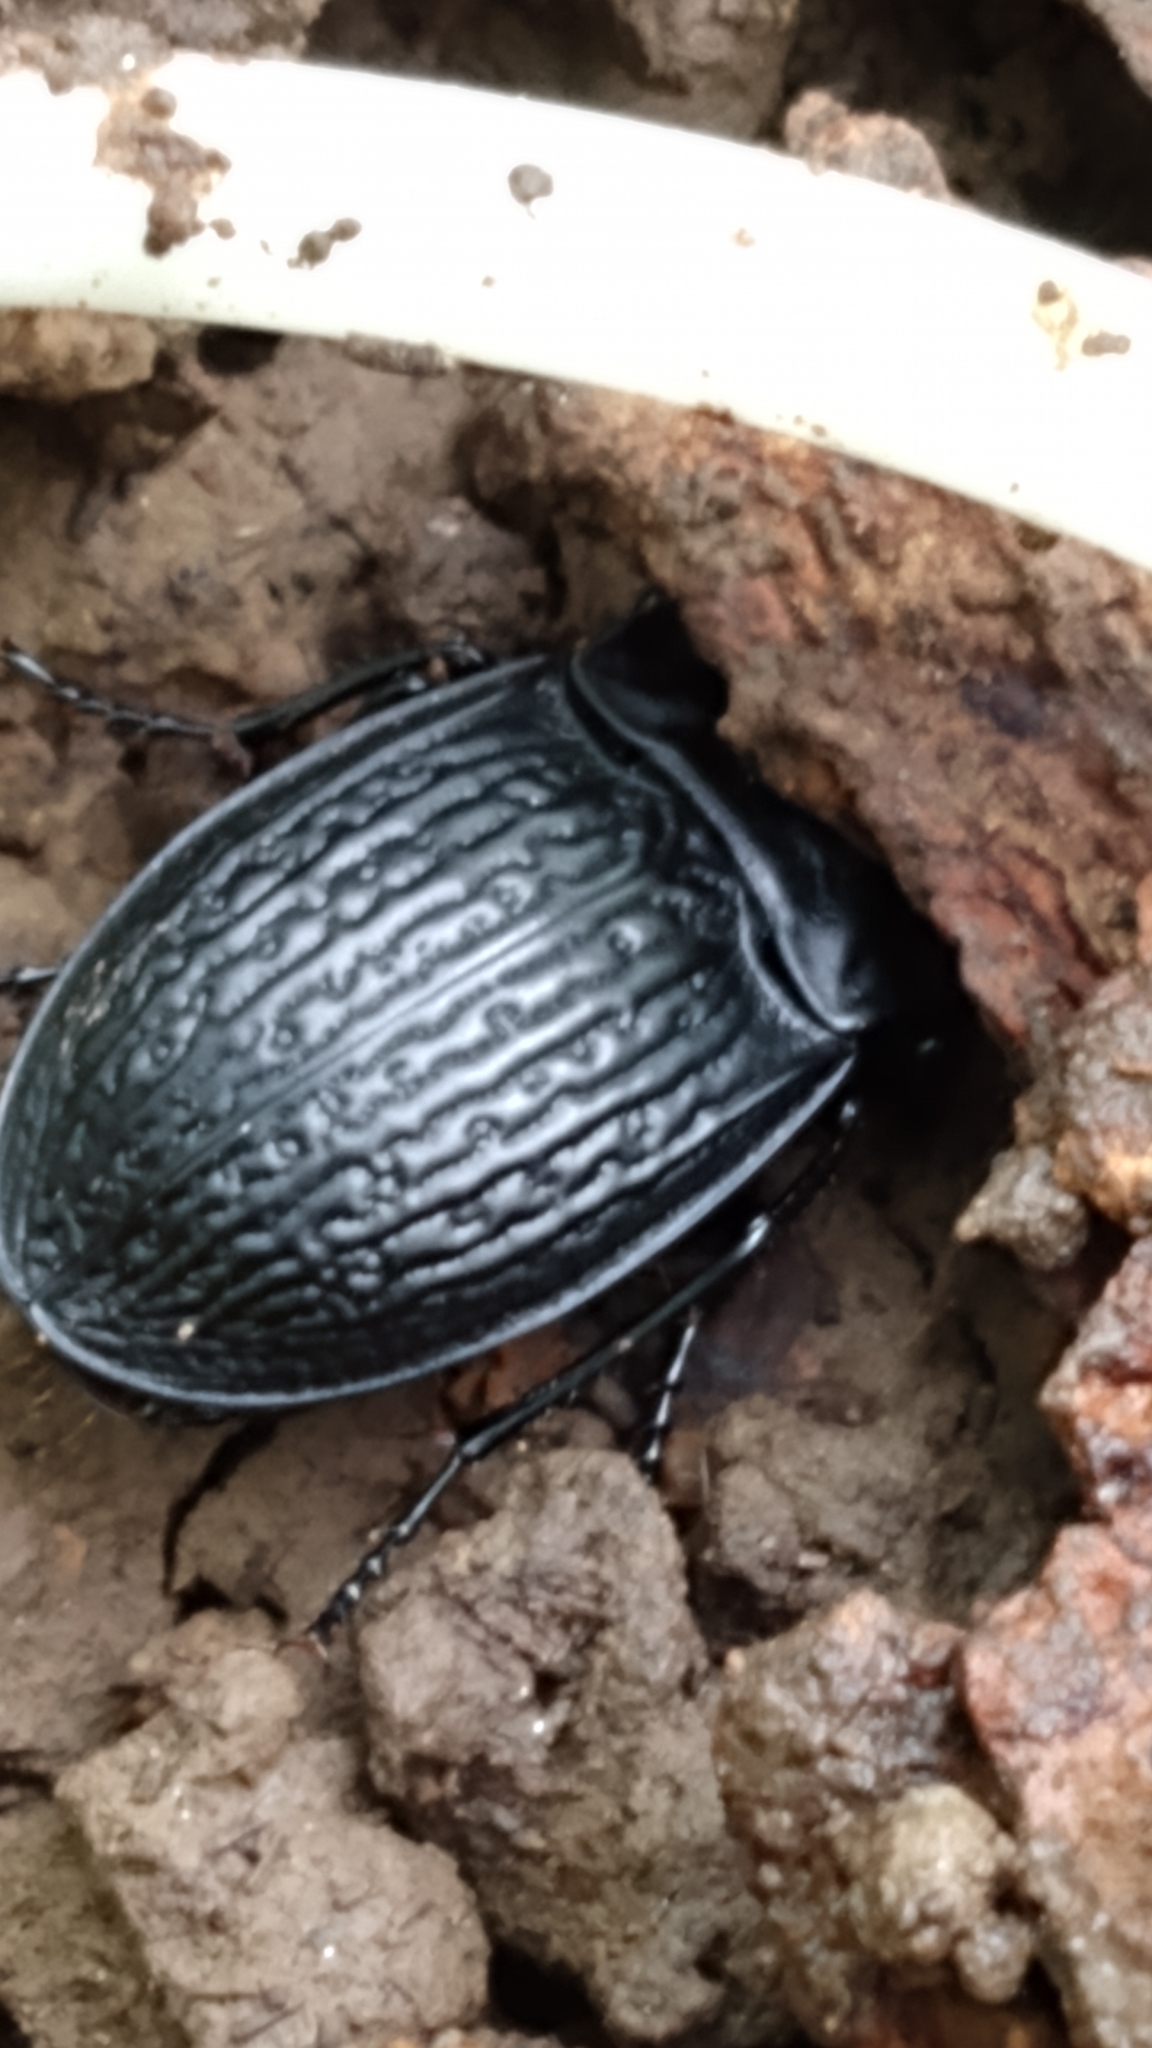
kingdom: Animalia
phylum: Arthropoda
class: Insecta
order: Coleoptera
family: Carabidae
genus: Dicaelus
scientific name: Dicaelus sculptilis
